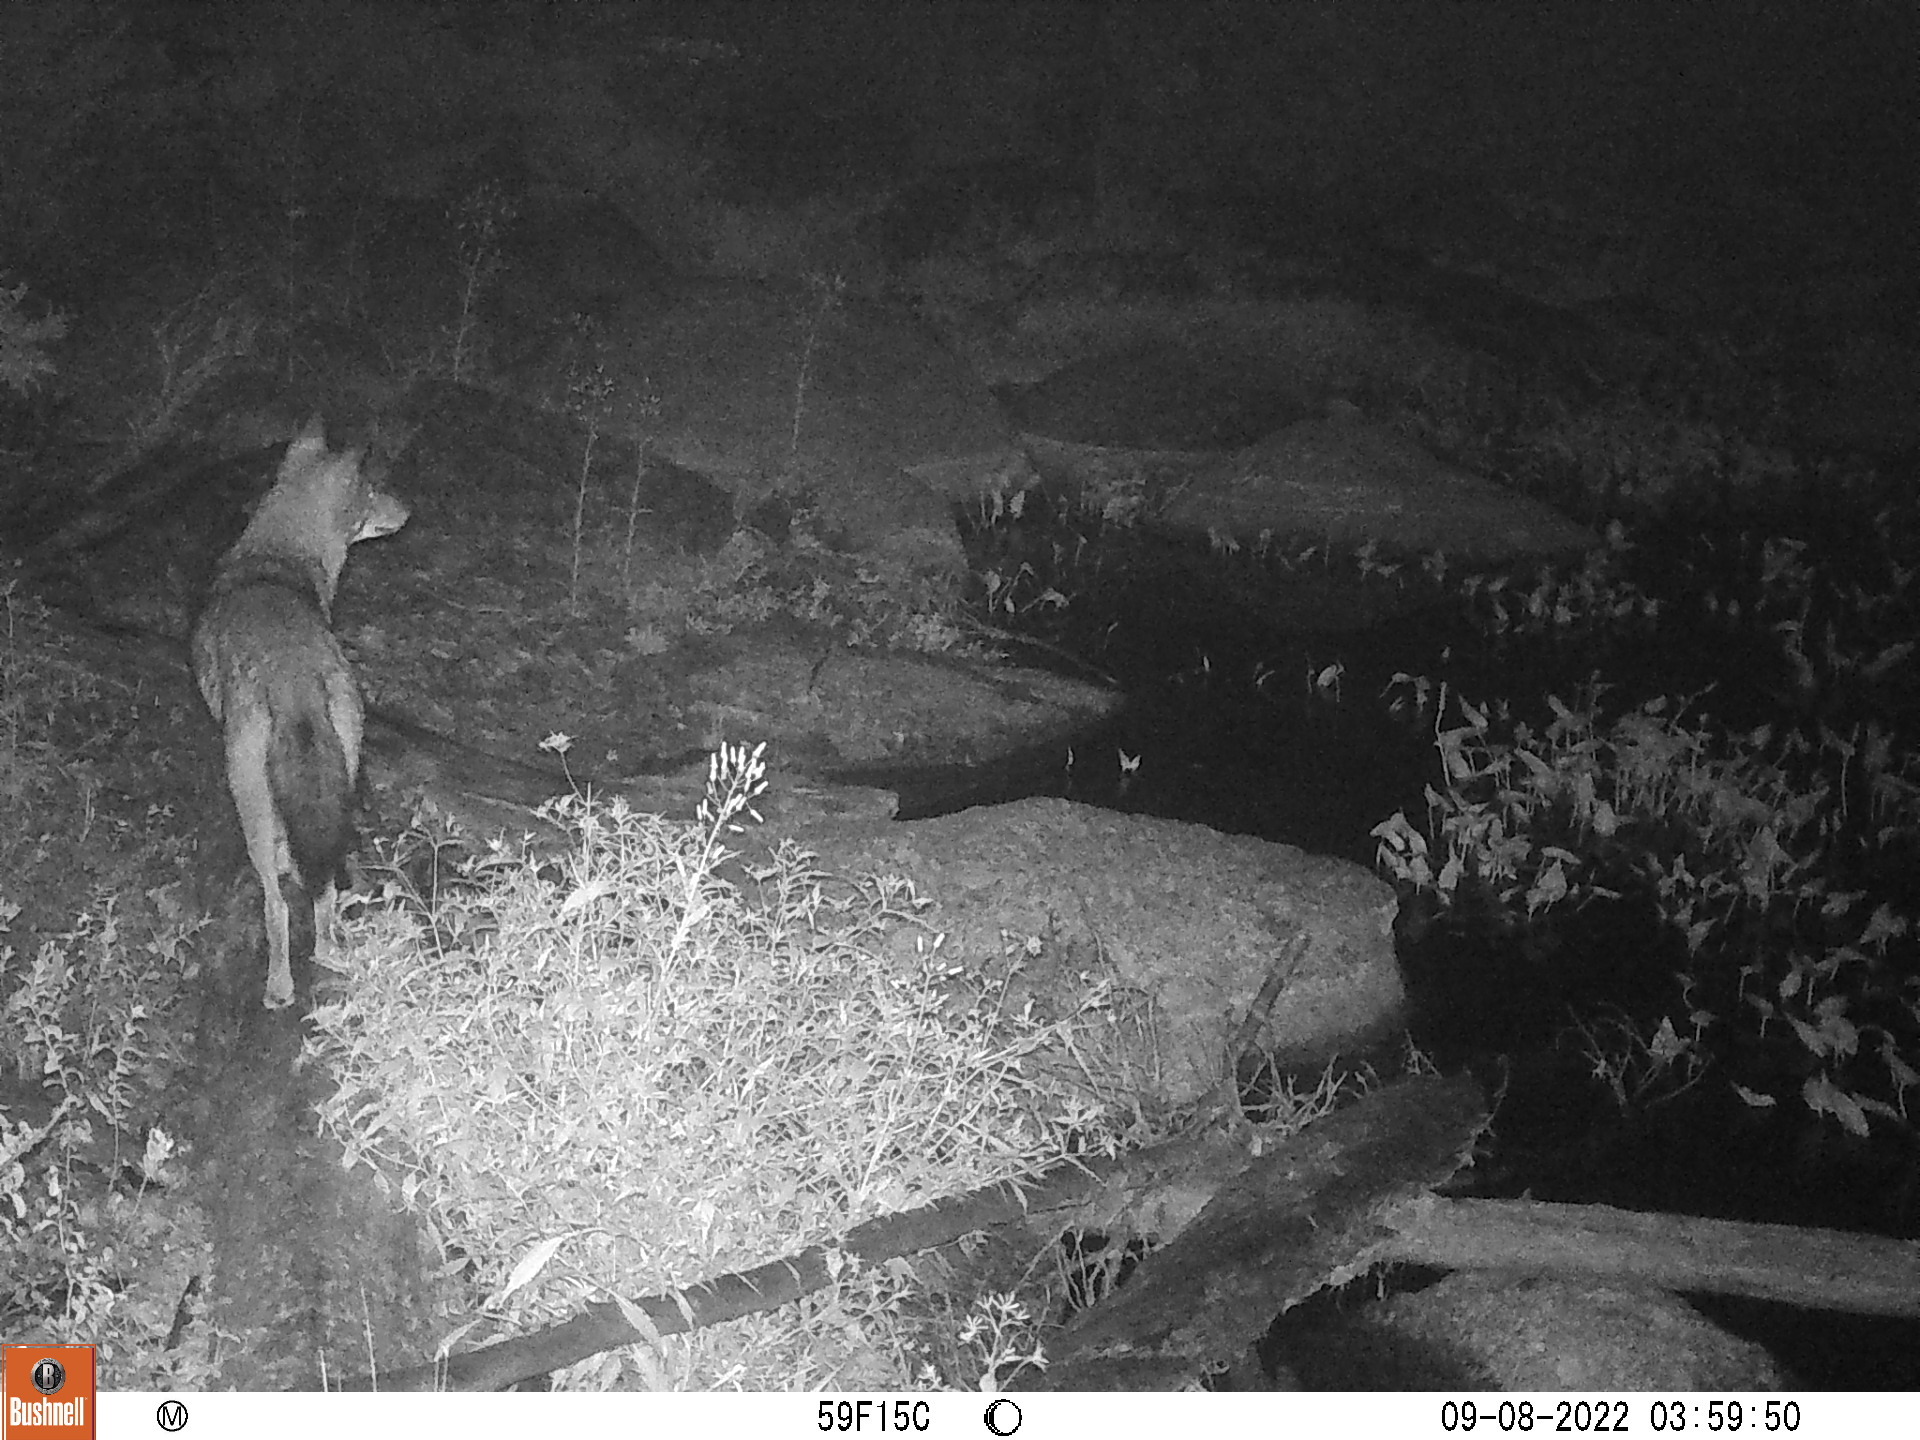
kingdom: Animalia
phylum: Chordata
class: Mammalia
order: Carnivora
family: Canidae
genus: Canis
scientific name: Canis latrans
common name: Coyote
